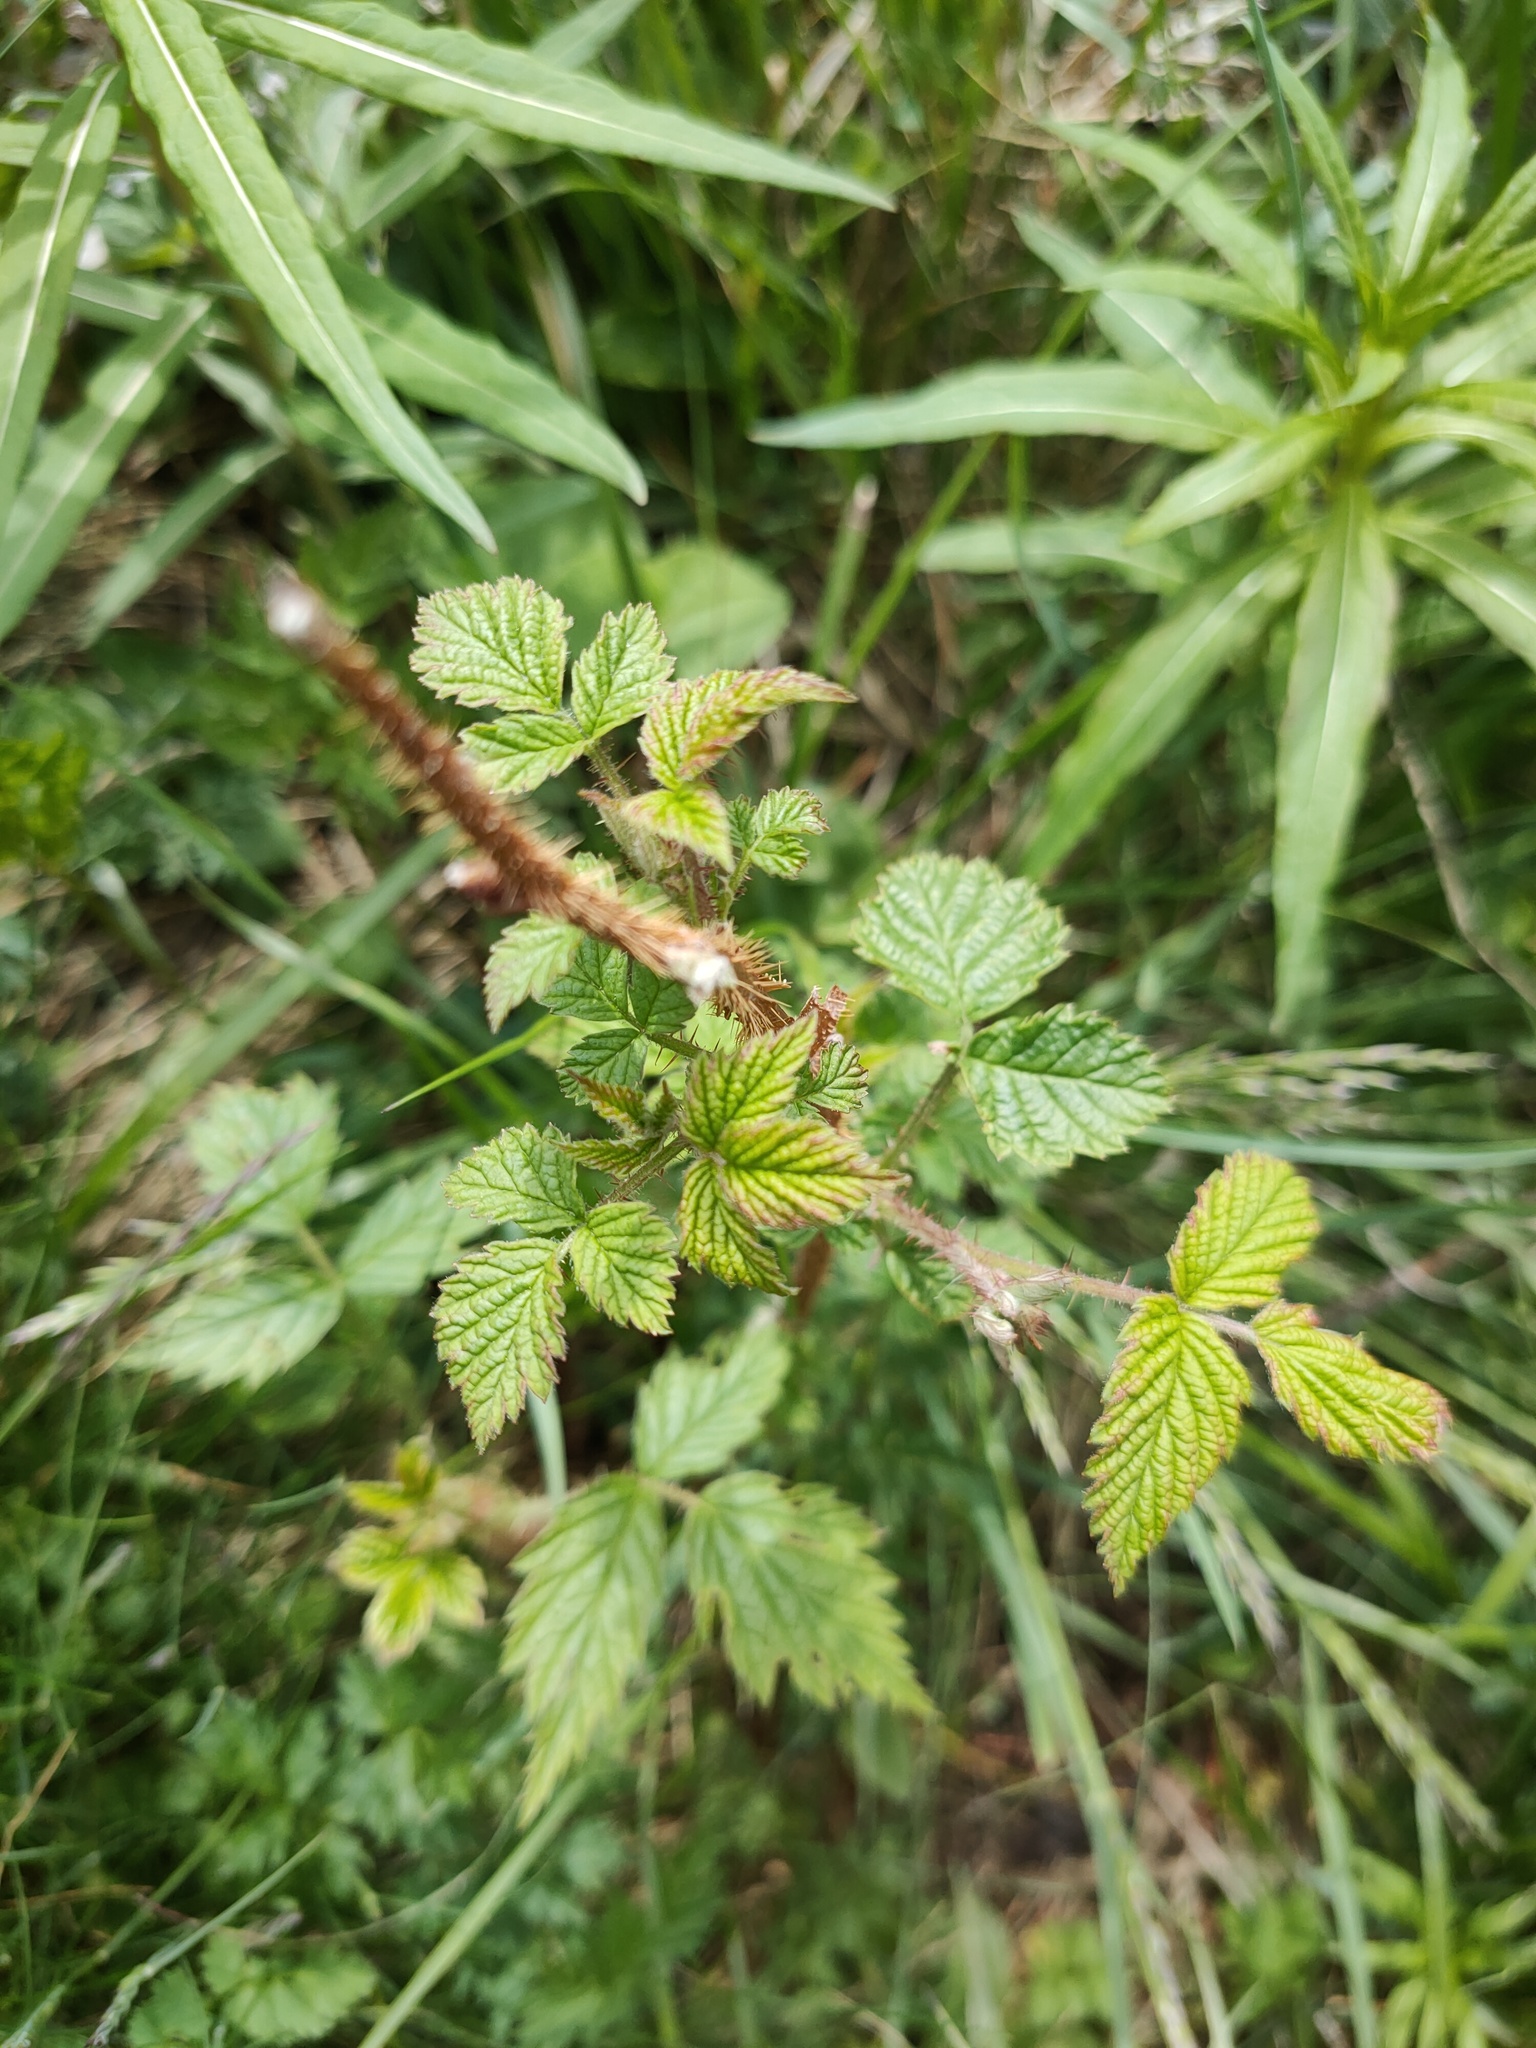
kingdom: Plantae
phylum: Tracheophyta
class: Magnoliopsida
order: Rosales
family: Rosaceae
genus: Rubus
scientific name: Rubus sachalinensis
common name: Red raspberry
